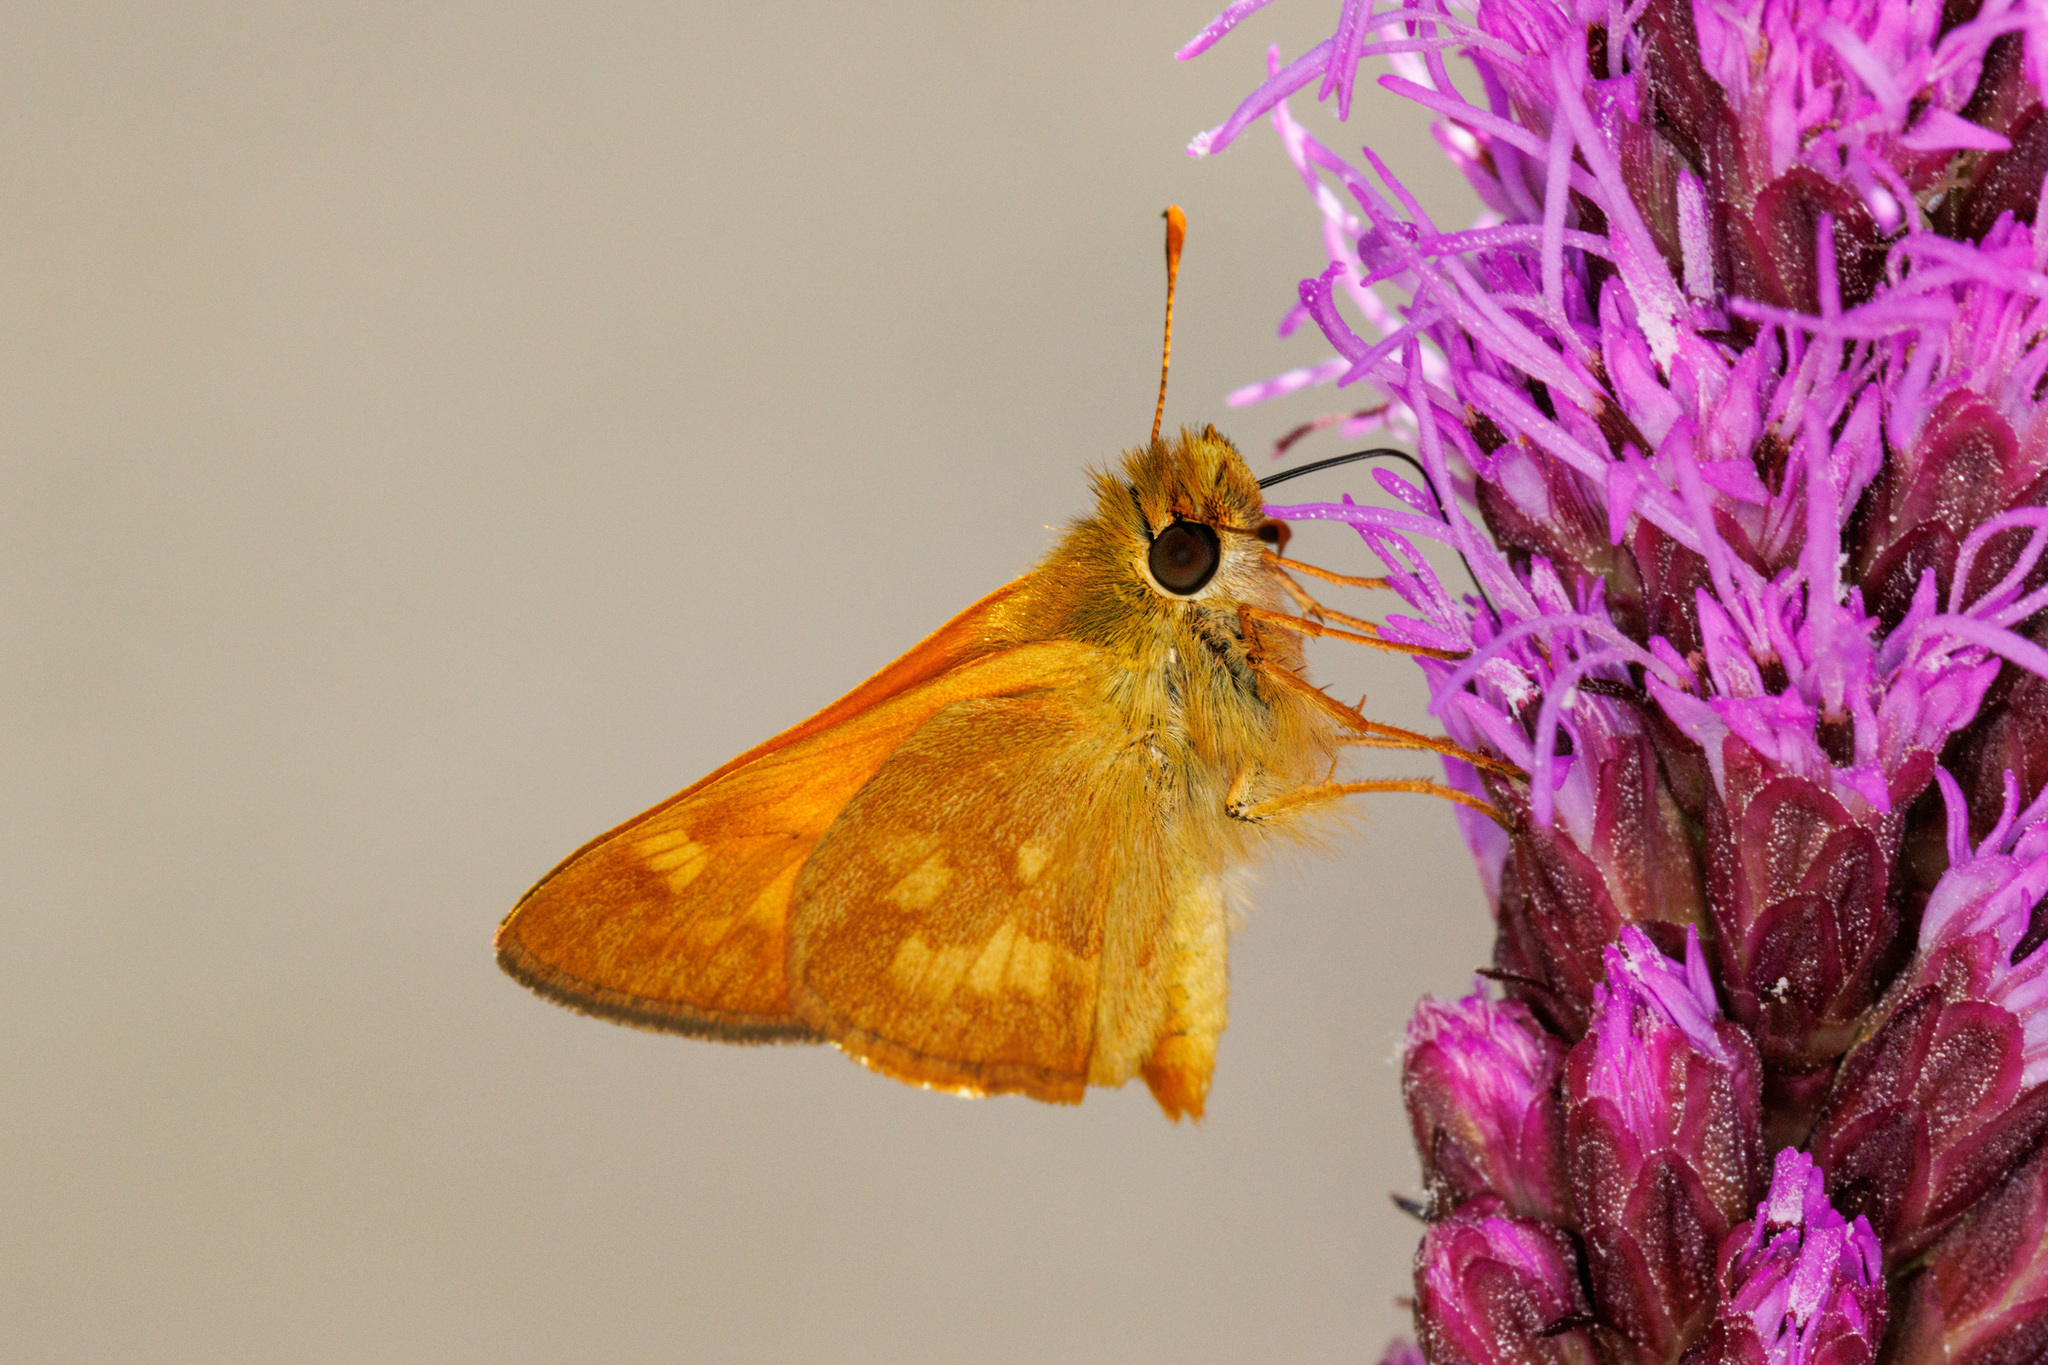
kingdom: Animalia
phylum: Arthropoda
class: Insecta
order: Lepidoptera
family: Hesperiidae
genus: Ochlodes
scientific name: Ochlodes sylvanoides
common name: Woodland skipper
